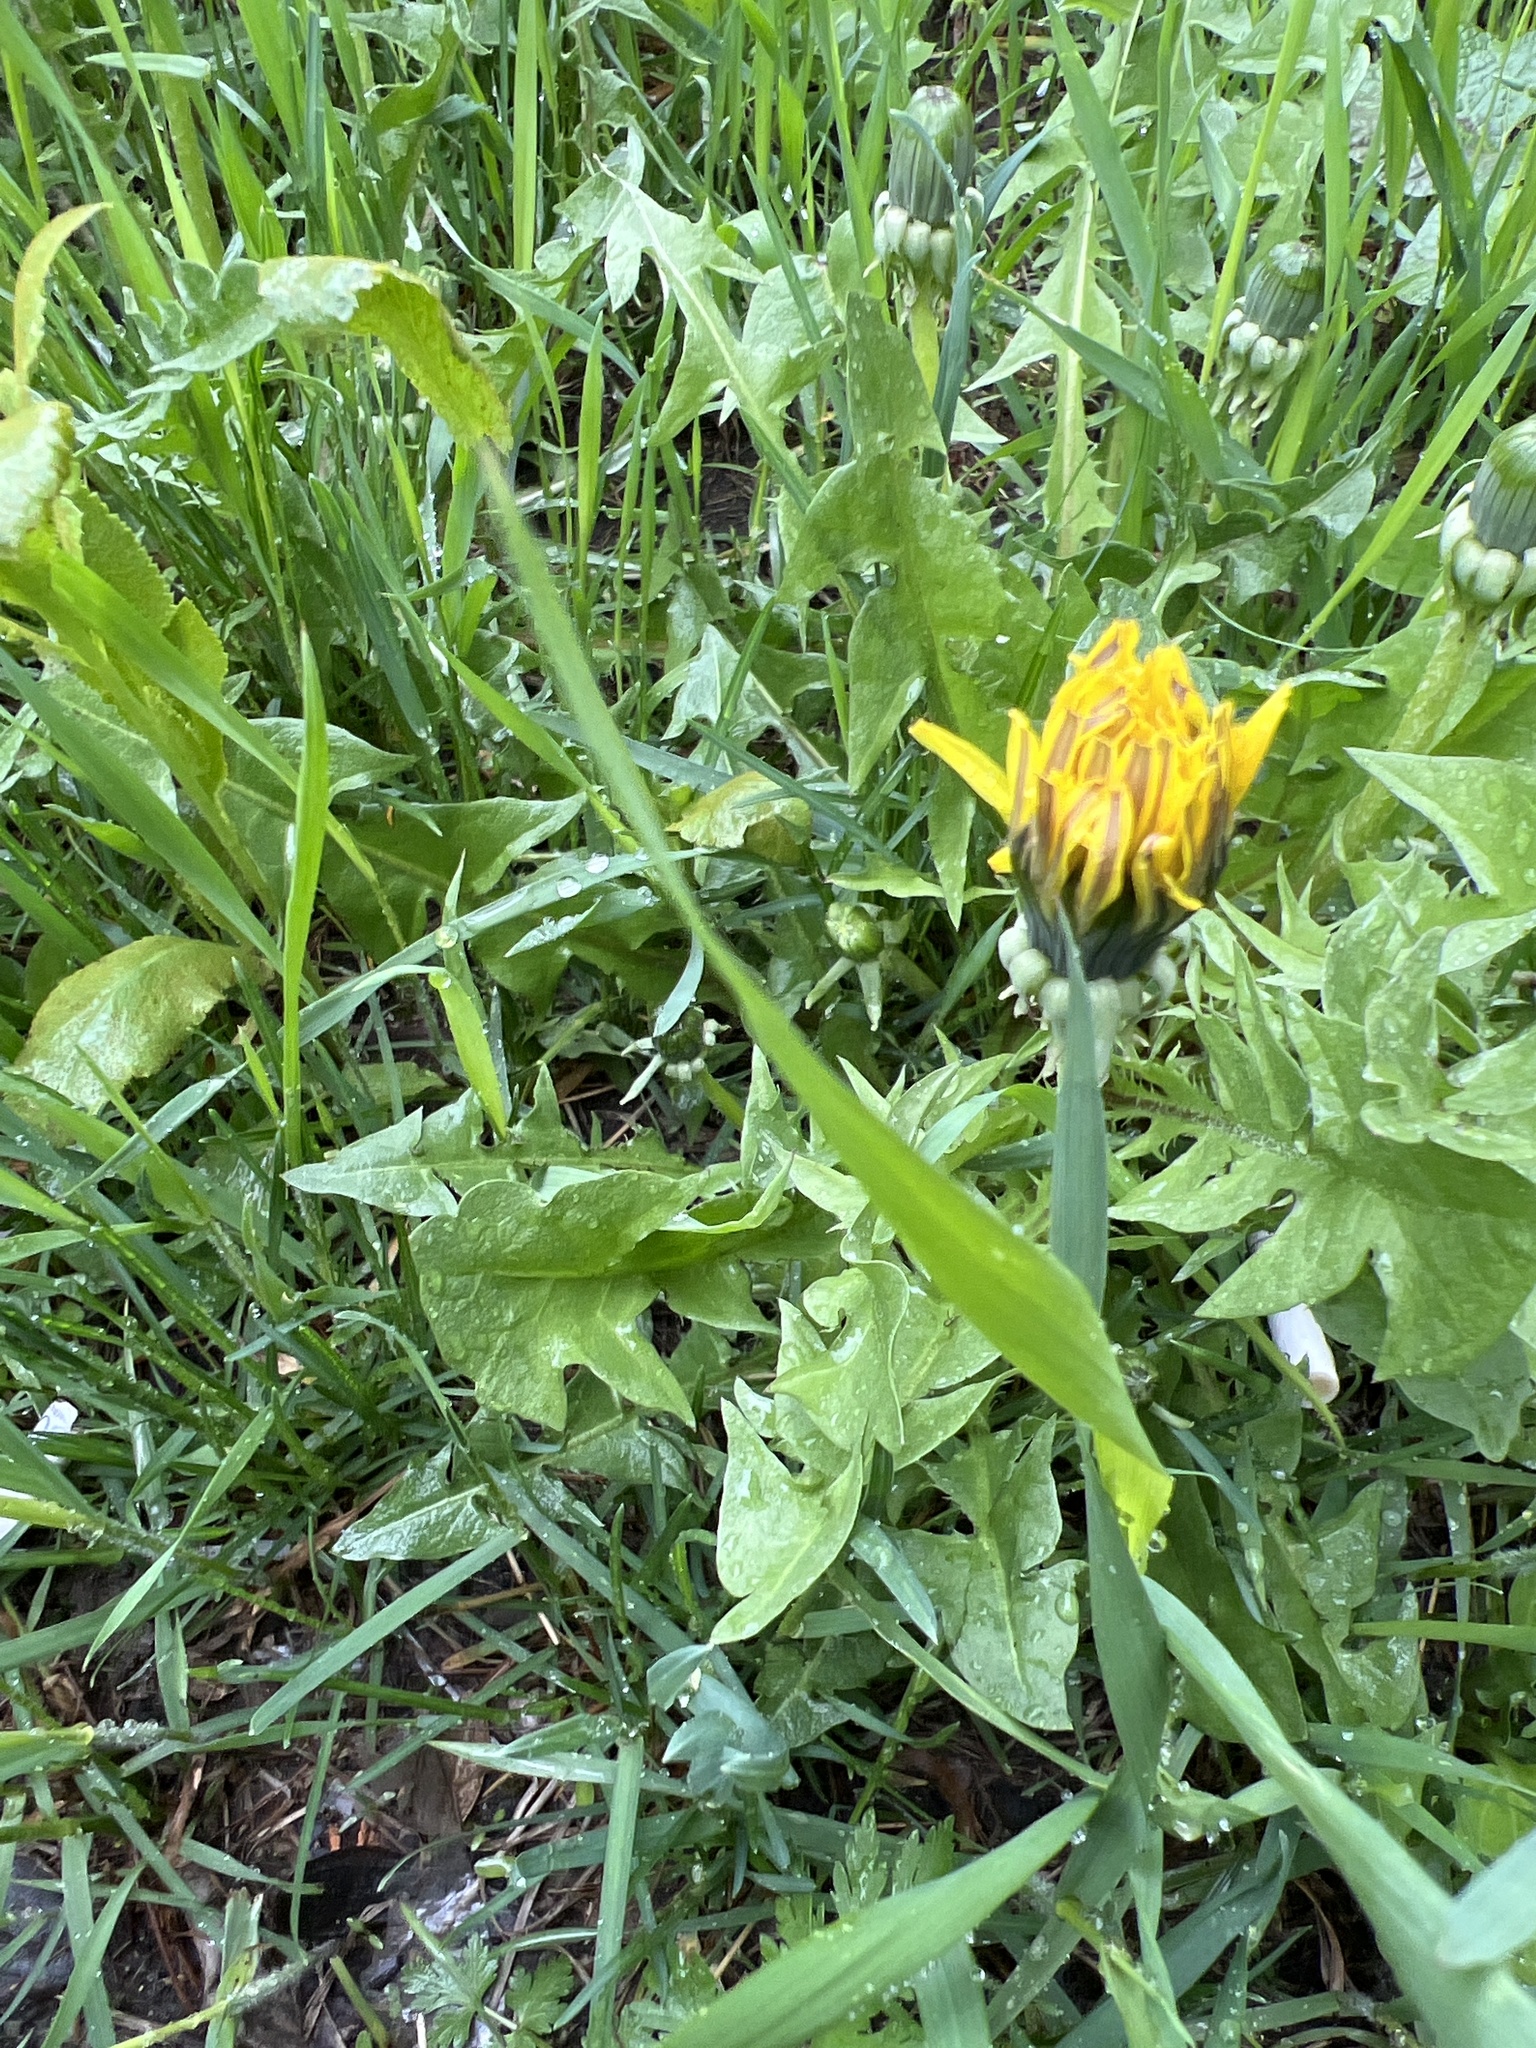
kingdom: Plantae
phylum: Tracheophyta
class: Magnoliopsida
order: Asterales
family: Asteraceae
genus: Taraxacum
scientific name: Taraxacum officinale
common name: Common dandelion
